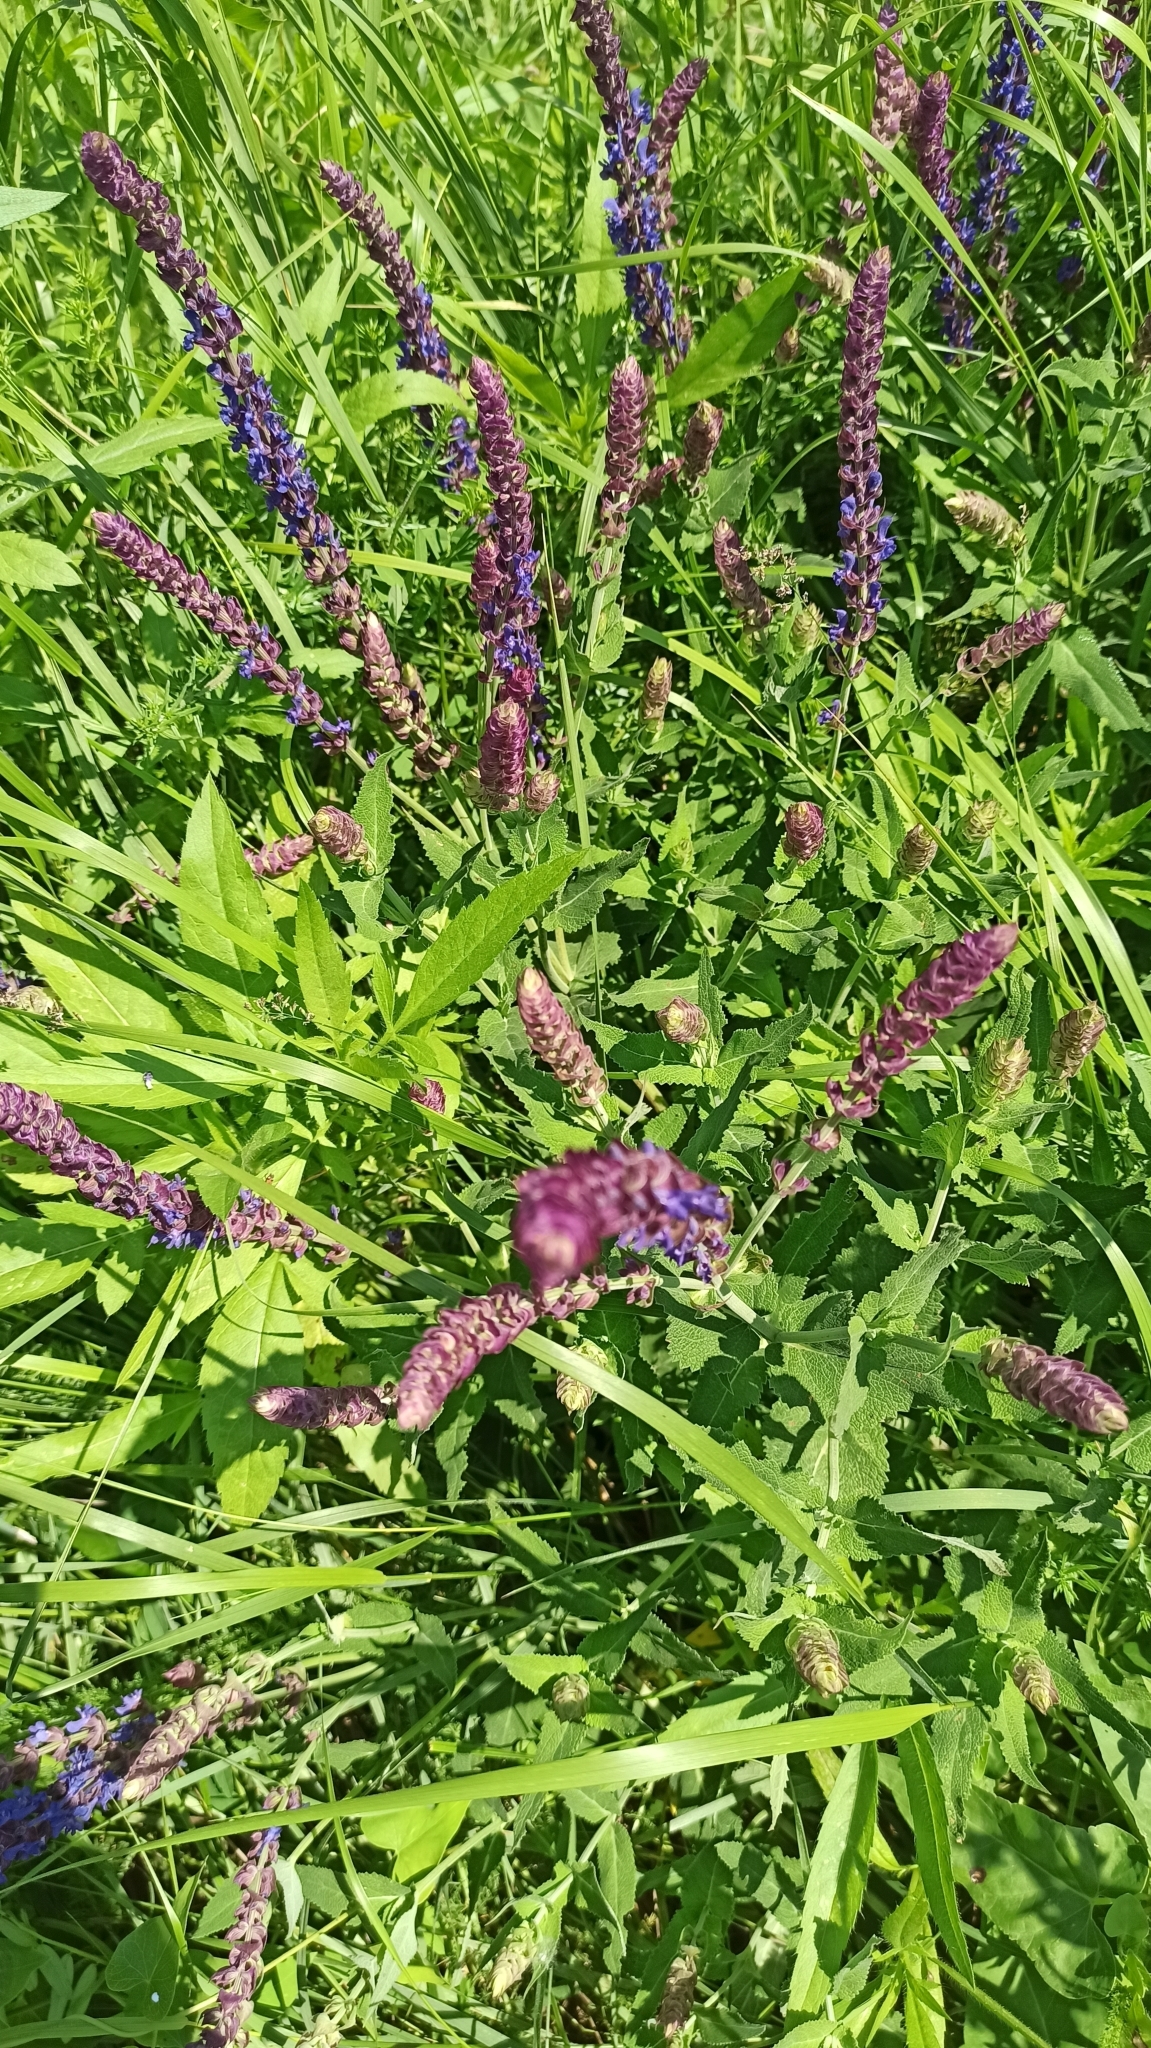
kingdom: Plantae
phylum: Tracheophyta
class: Magnoliopsida
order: Lamiales
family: Lamiaceae
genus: Salvia
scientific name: Salvia nemorosa
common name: Balkan clary
